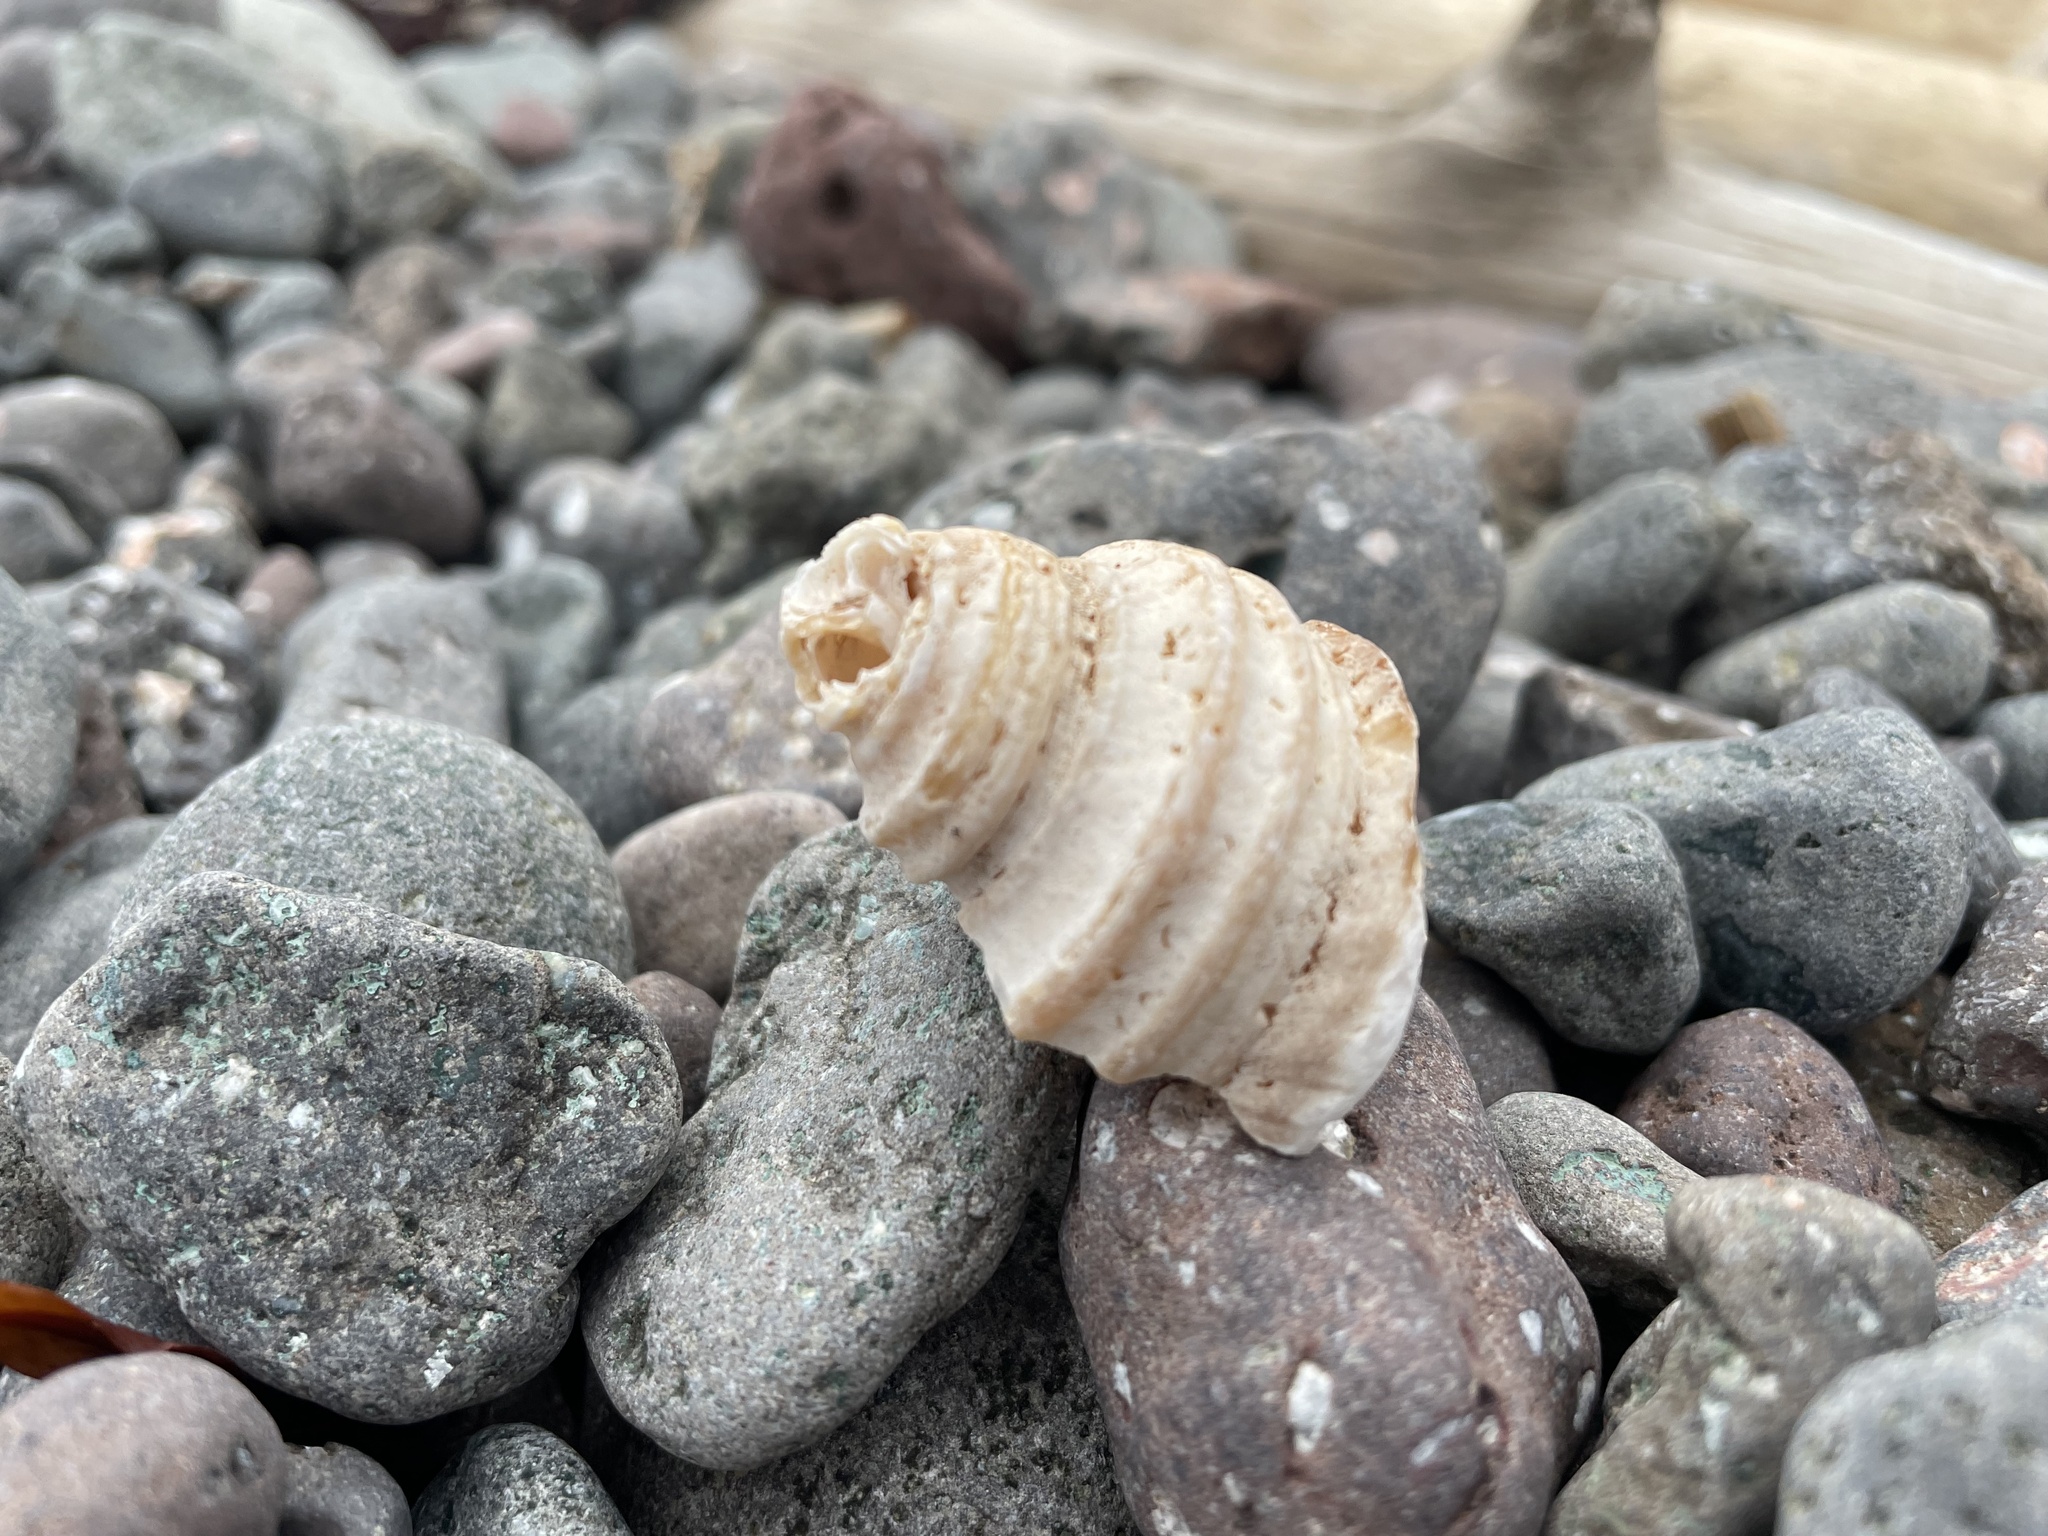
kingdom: Animalia
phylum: Mollusca
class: Gastropoda
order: Neogastropoda
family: Buccinidae
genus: Neptunea
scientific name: Neptunea decemcostata
